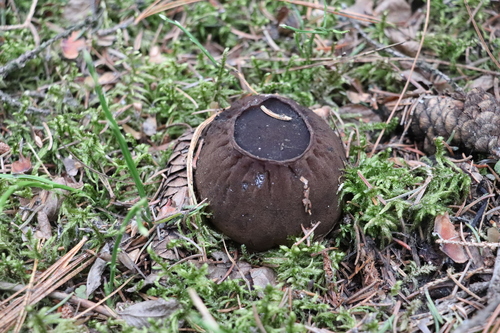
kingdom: Fungi
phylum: Ascomycota
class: Pezizomycetes
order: Pezizales
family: Sarcosomataceae
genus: Sarcosoma
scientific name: Sarcosoma globosum
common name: Charred-pancake cup
